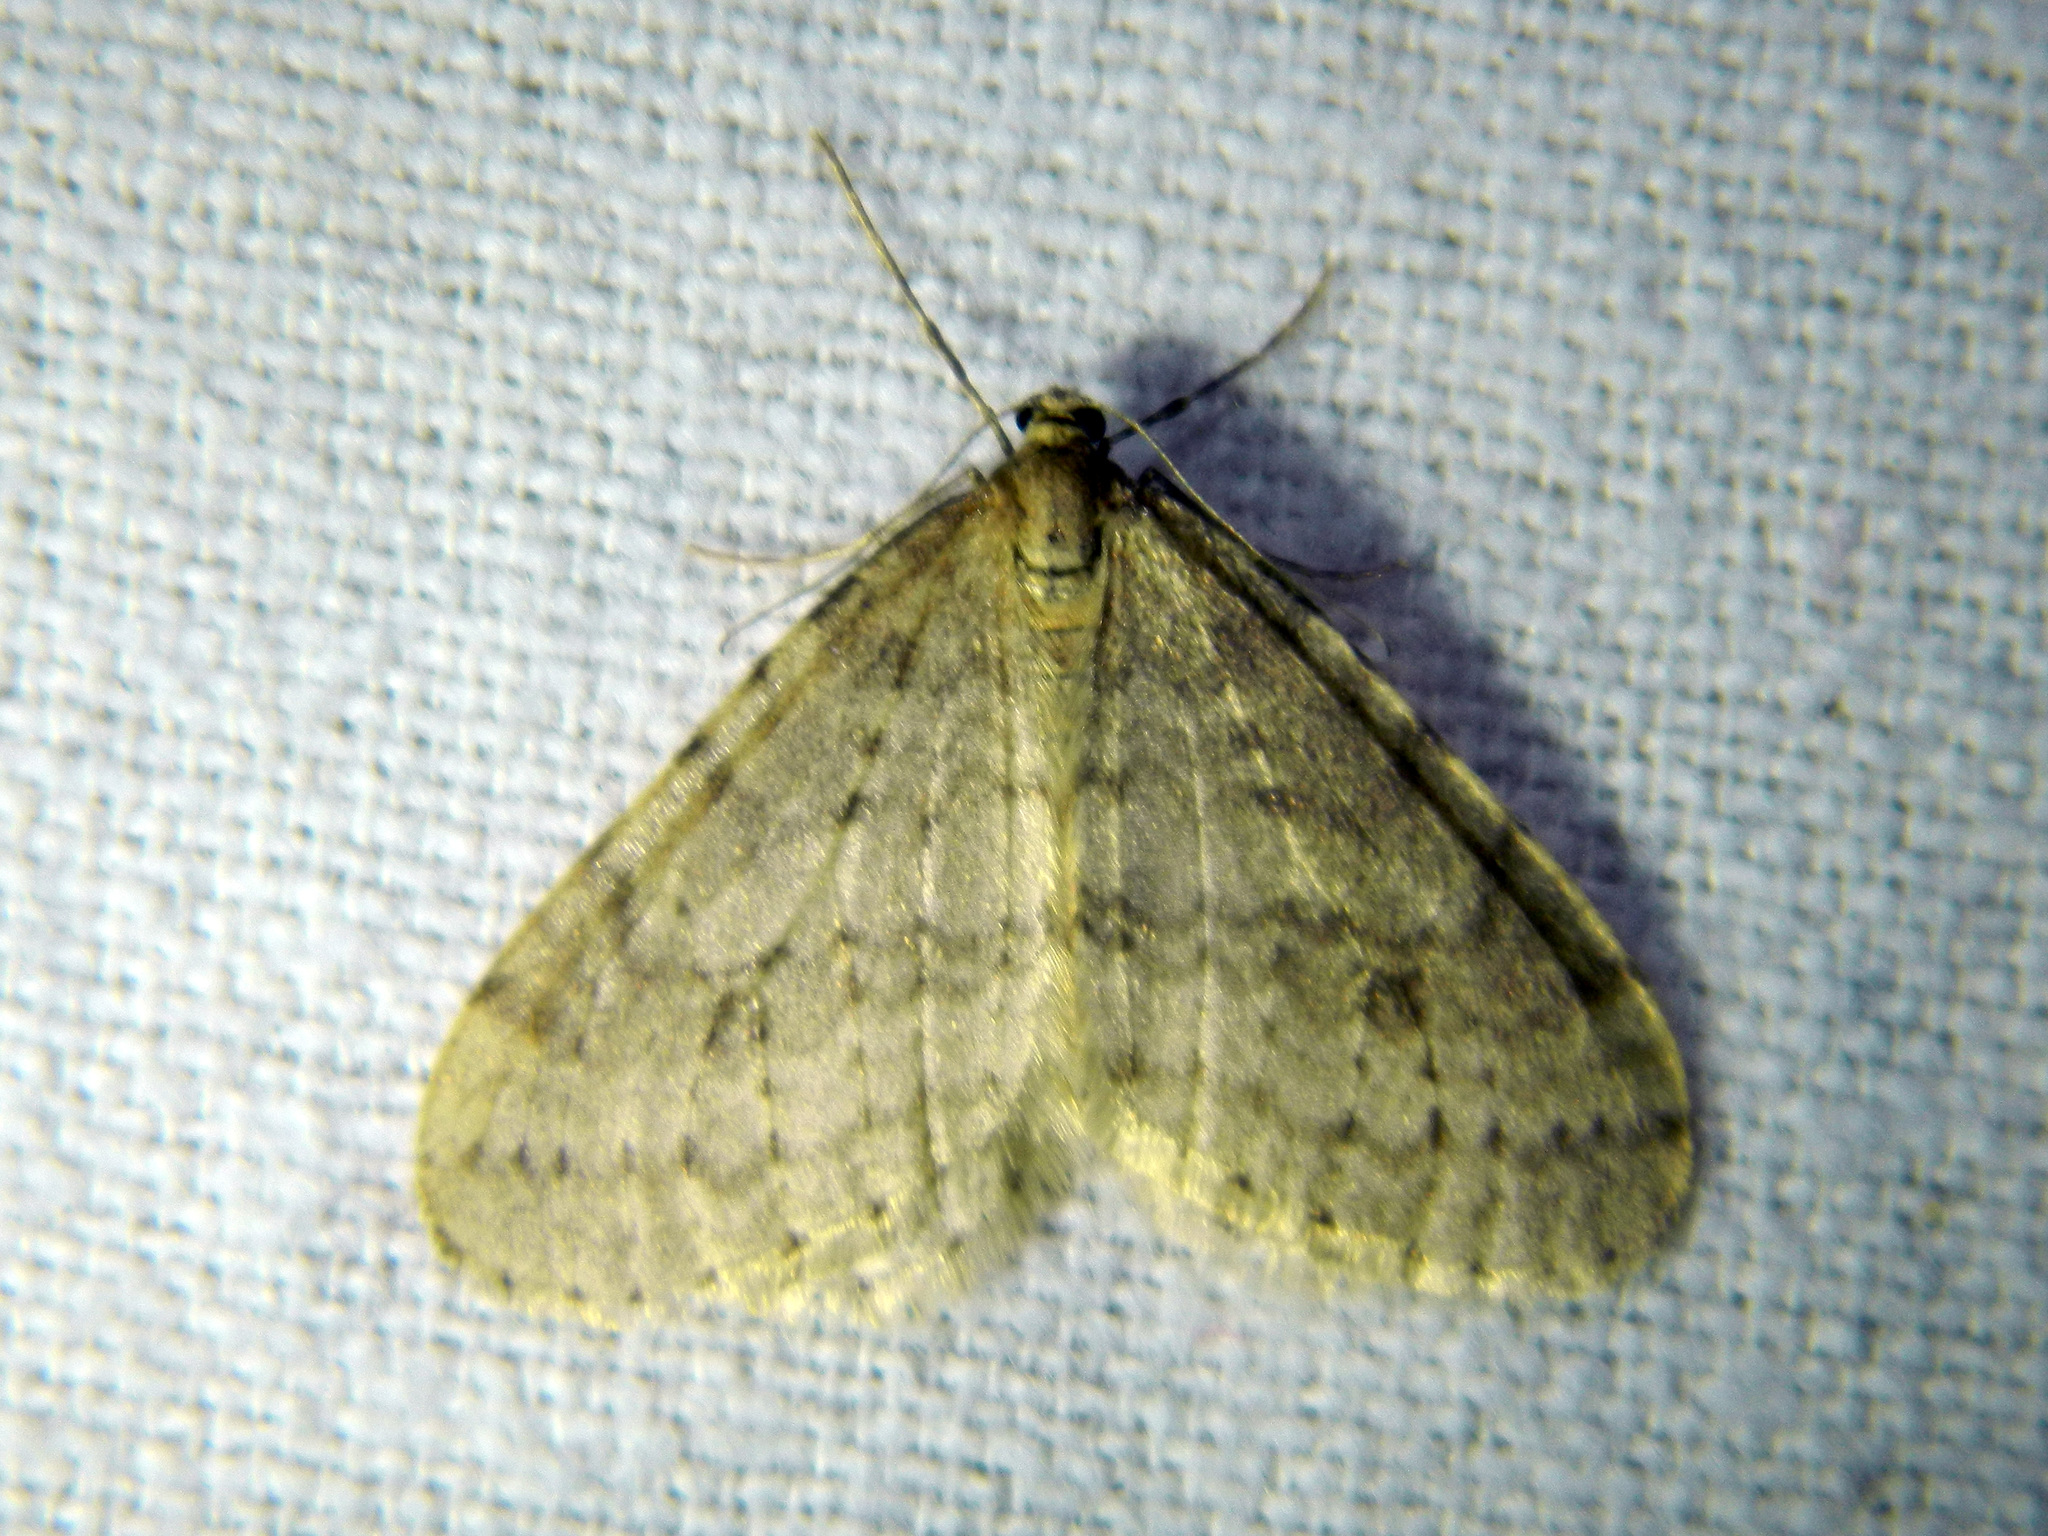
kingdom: Animalia
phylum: Arthropoda
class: Insecta
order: Lepidoptera
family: Geometridae
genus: Operophtera
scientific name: Operophtera bruceata
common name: Bruce spanworm
